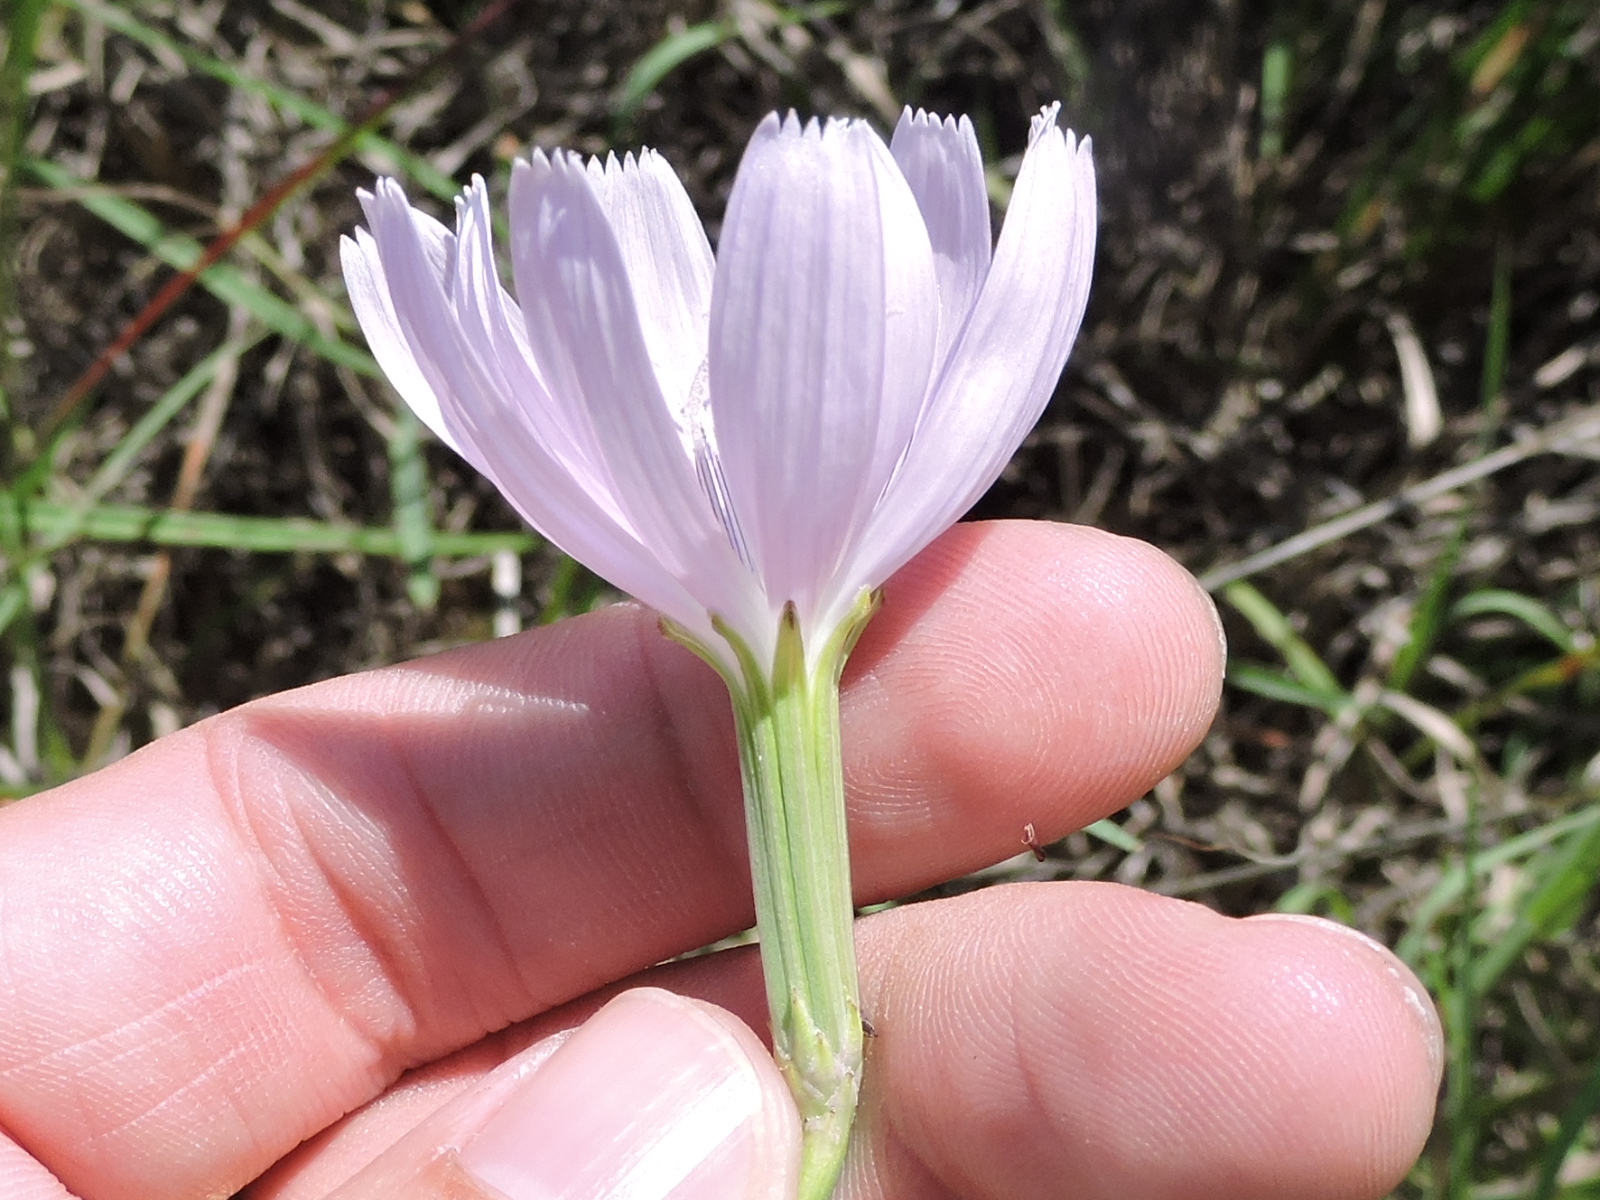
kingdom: Plantae
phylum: Tracheophyta
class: Magnoliopsida
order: Asterales
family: Asteraceae
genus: Lygodesmia
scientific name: Lygodesmia texana
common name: Texas skeleton-plant
